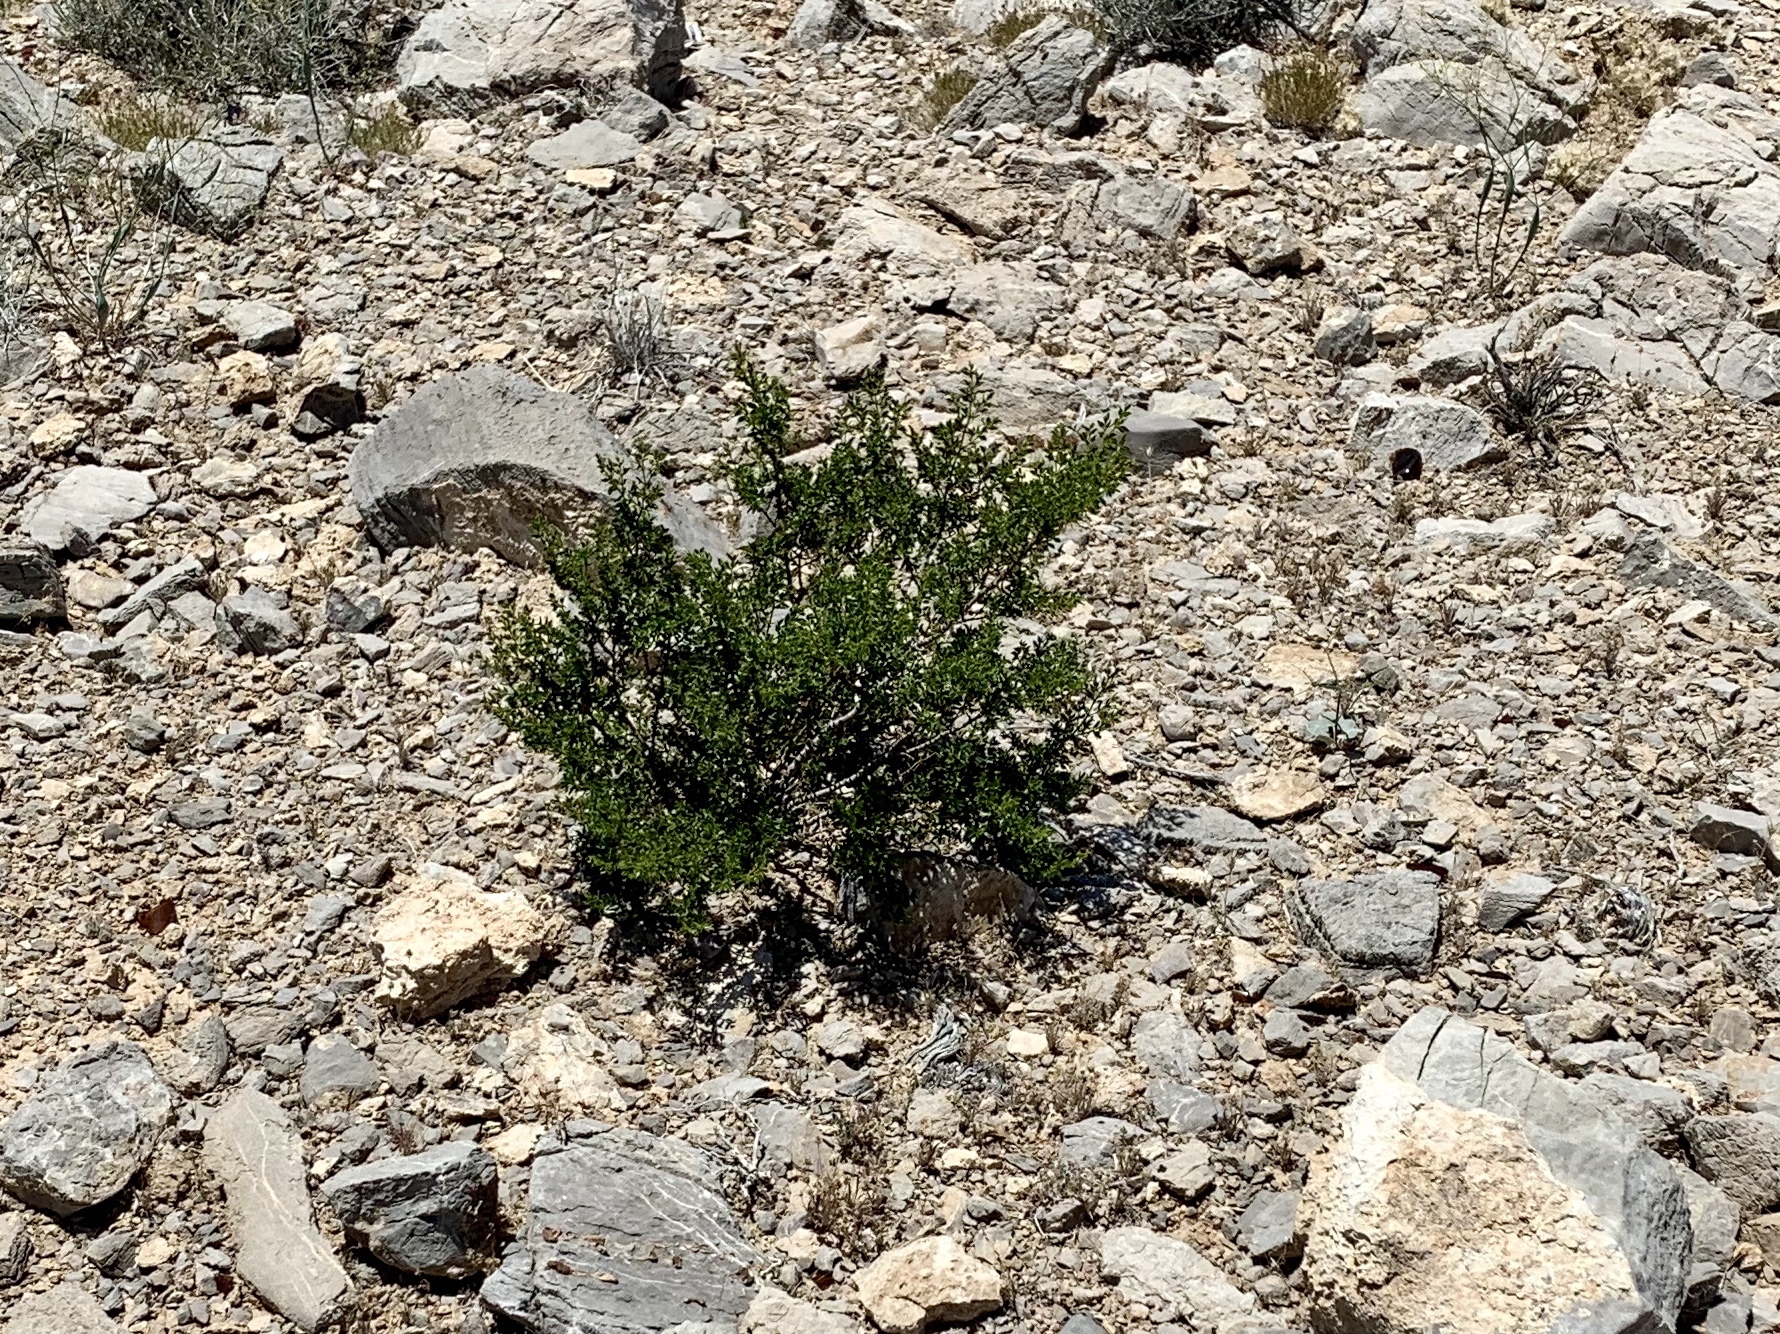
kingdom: Plantae
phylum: Tracheophyta
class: Magnoliopsida
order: Zygophyllales
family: Zygophyllaceae
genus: Larrea
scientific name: Larrea tridentata
